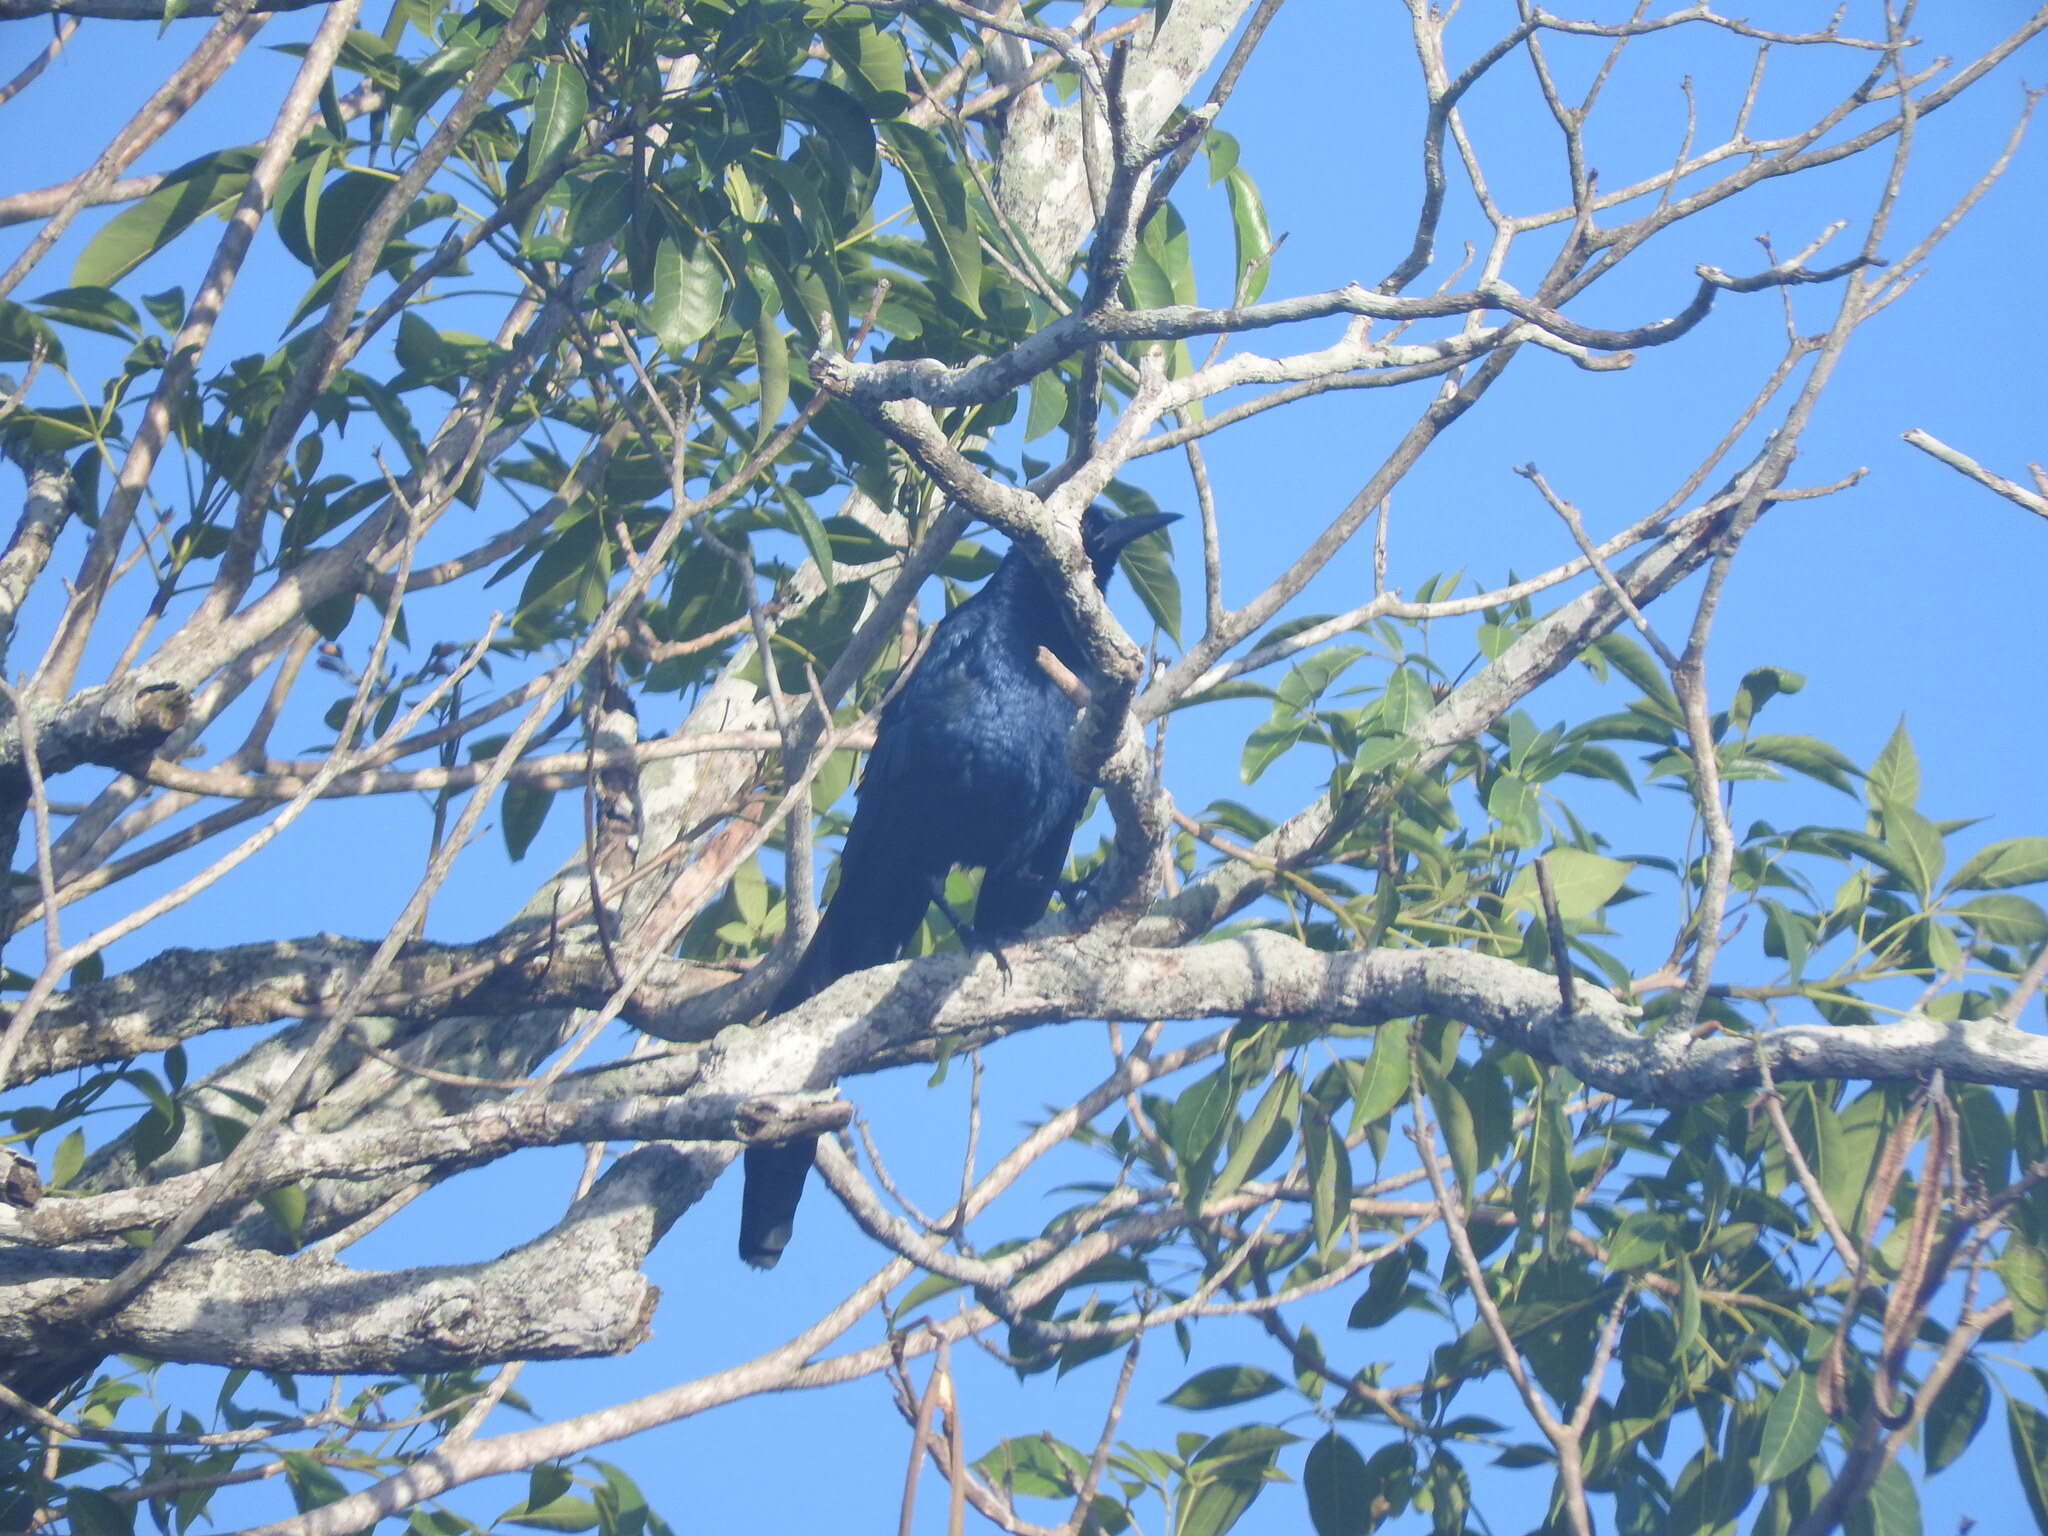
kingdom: Animalia
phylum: Chordata
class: Aves
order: Passeriformes
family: Icteridae
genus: Quiscalus
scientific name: Quiscalus mexicanus
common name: Great-tailed grackle
